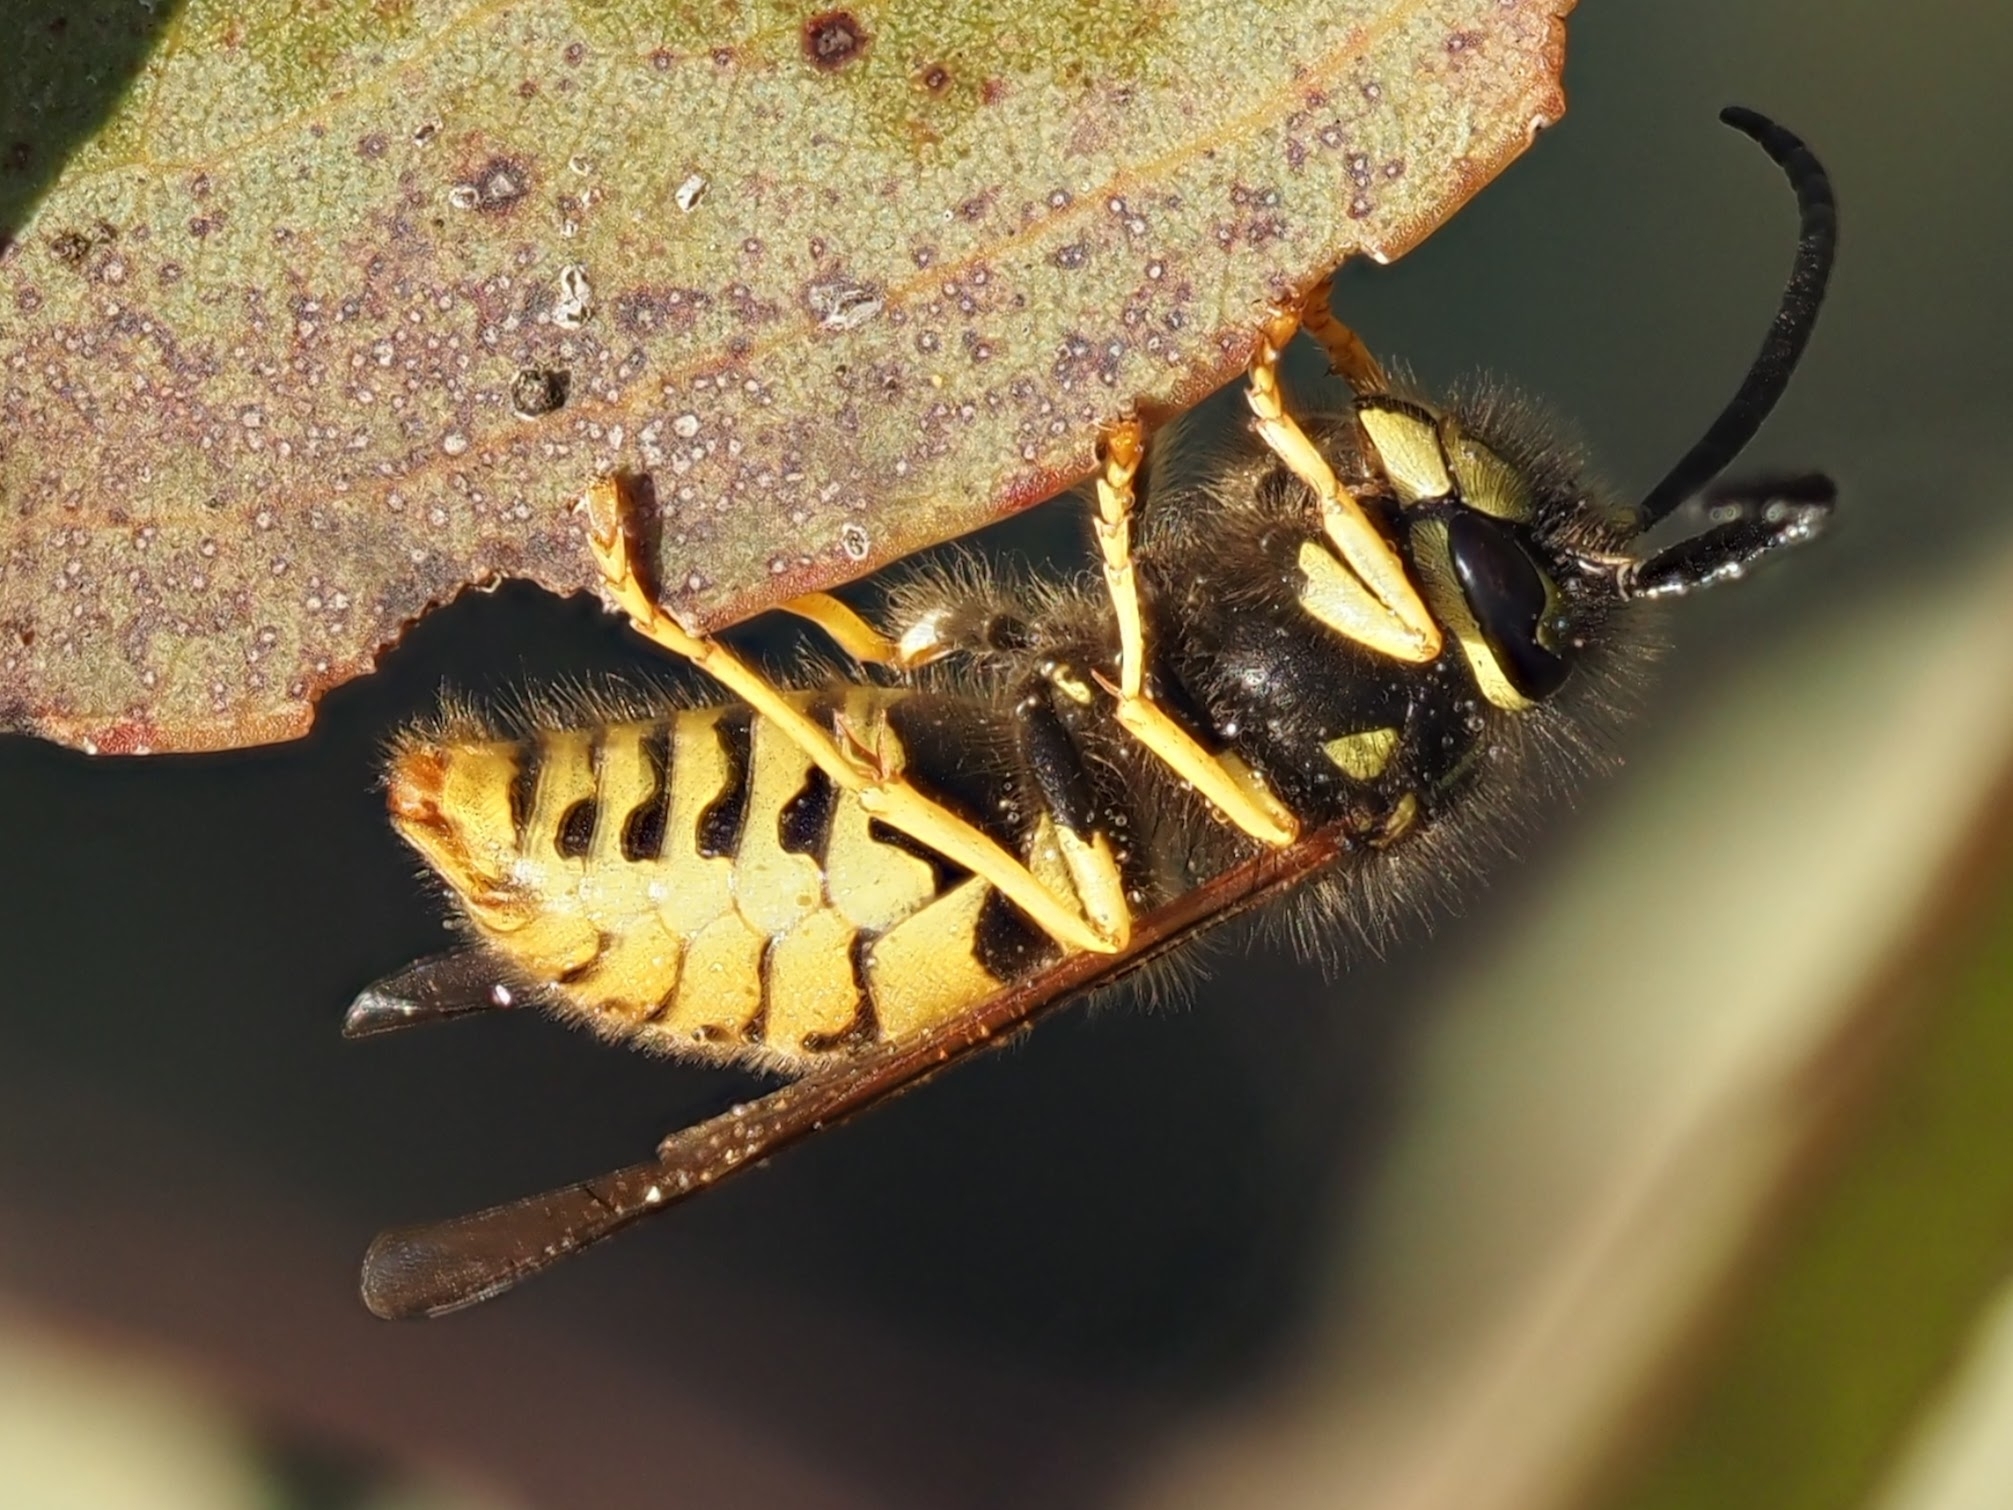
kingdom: Animalia
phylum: Arthropoda
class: Insecta
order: Hymenoptera
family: Vespidae
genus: Vespula
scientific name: Vespula
